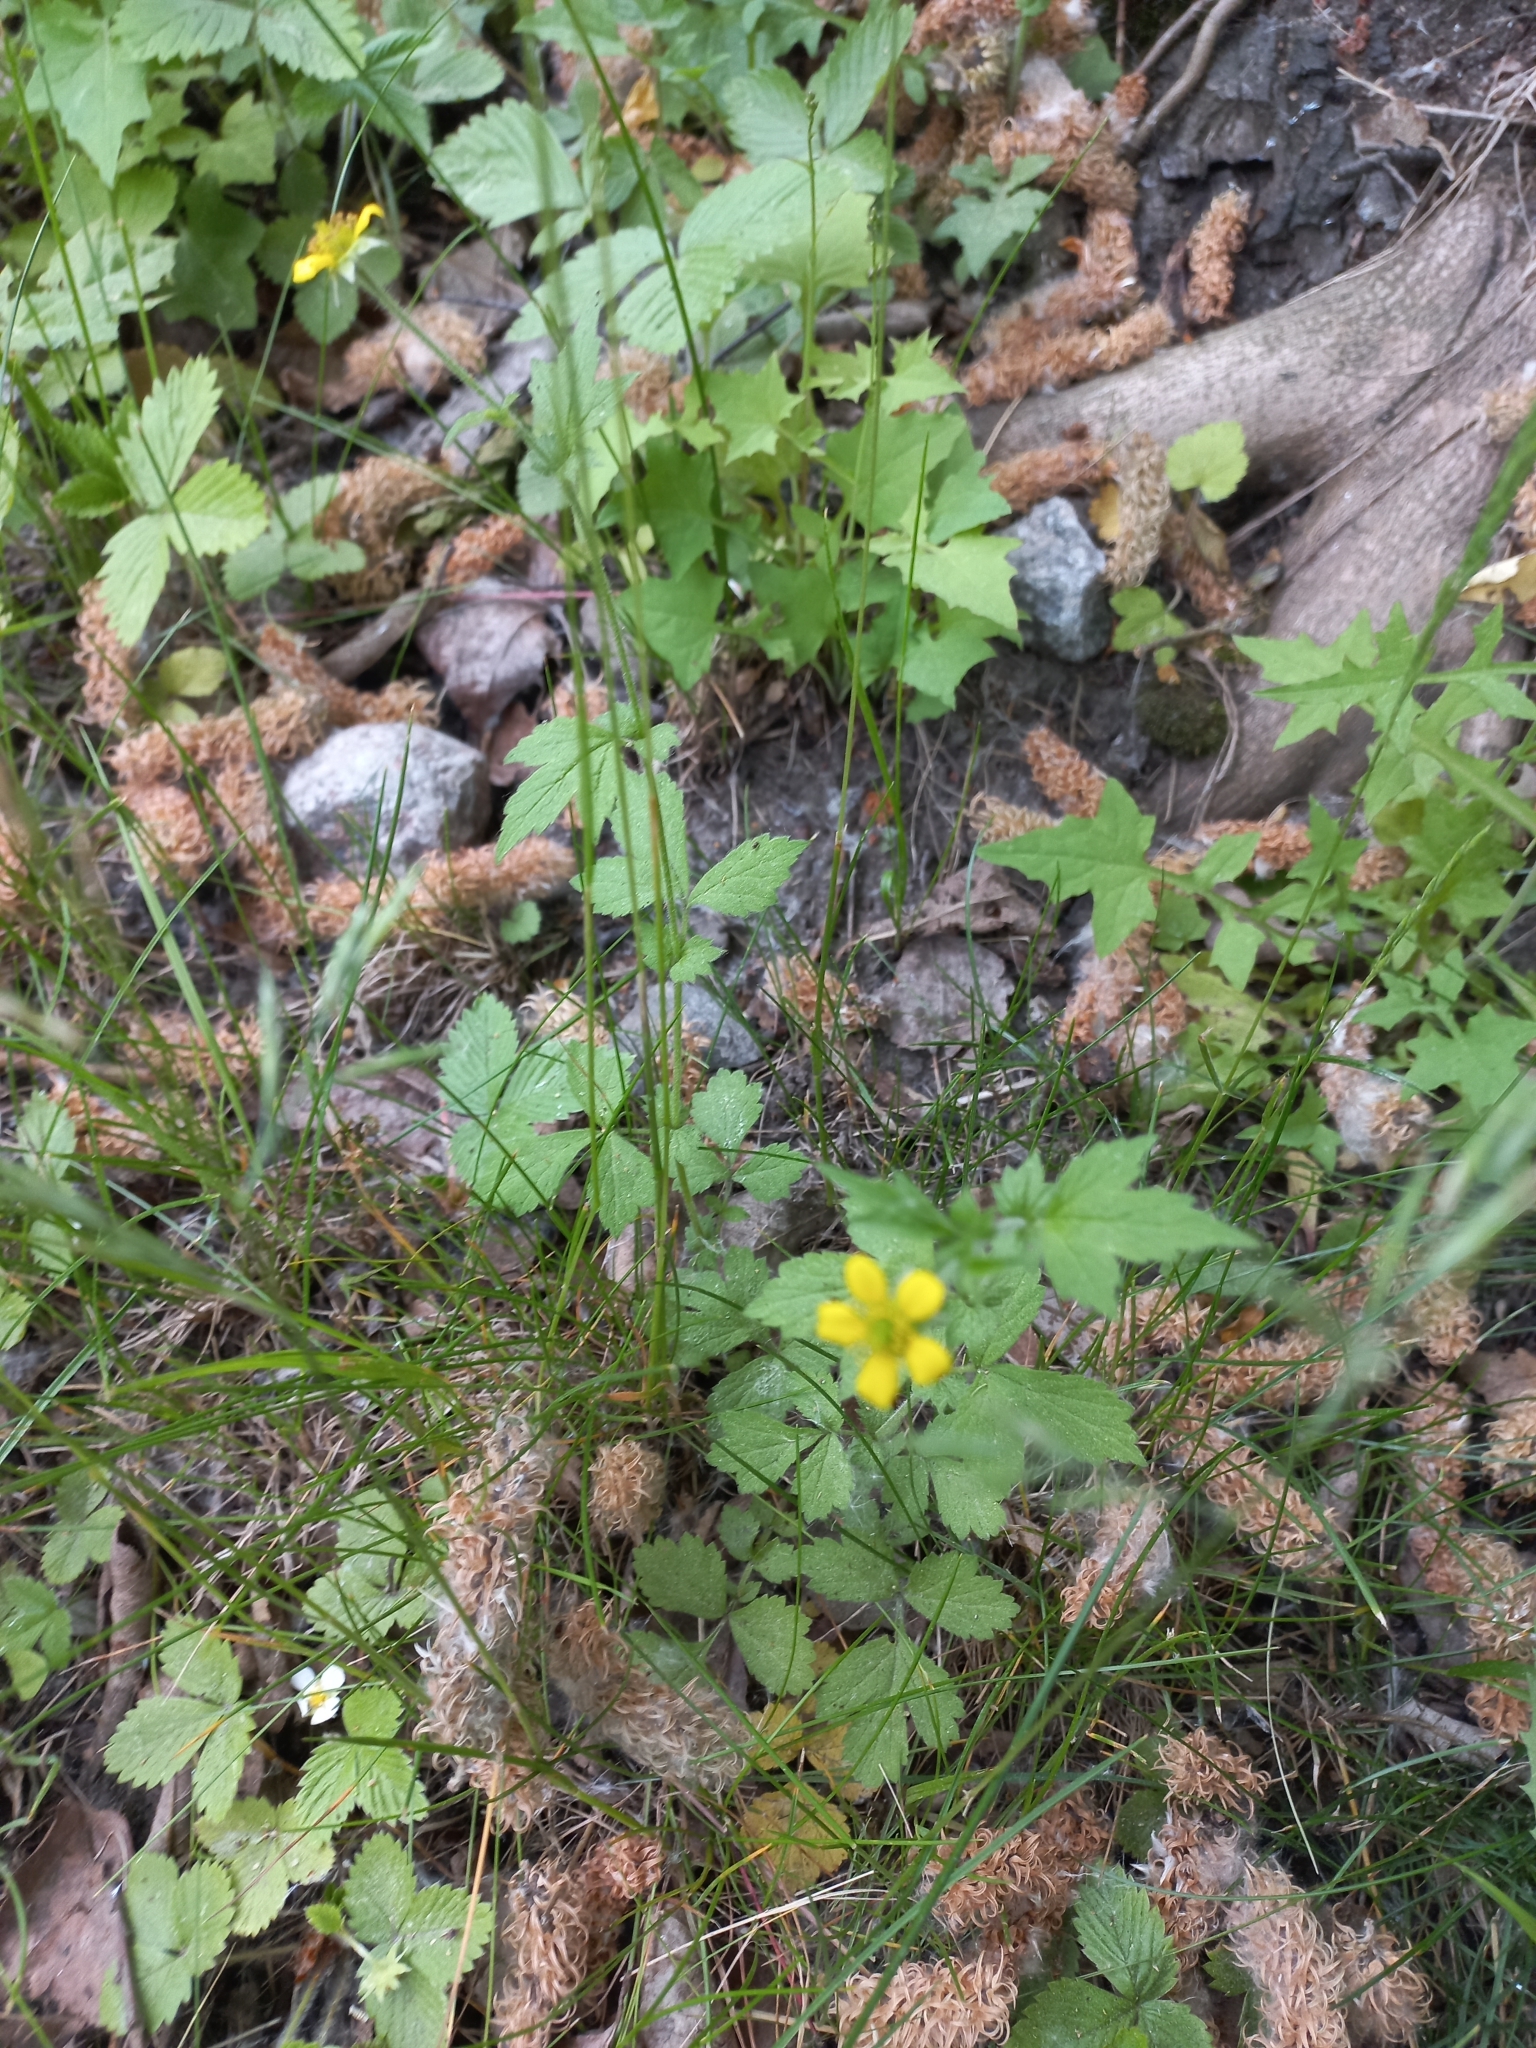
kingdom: Plantae
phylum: Tracheophyta
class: Magnoliopsida
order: Rosales
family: Rosaceae
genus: Geum
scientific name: Geum urbanum
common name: Wood avens
